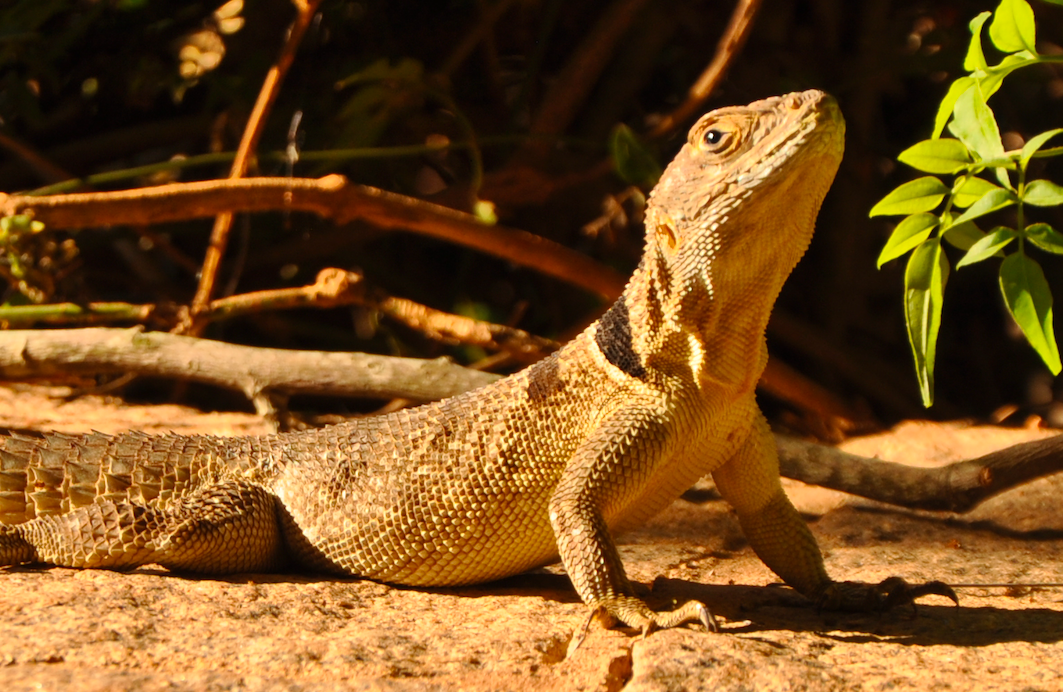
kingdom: Animalia
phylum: Chordata
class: Squamata
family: Opluridae
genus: Oplurus
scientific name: Oplurus cuvieri
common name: Cuvier's madagascar swift
